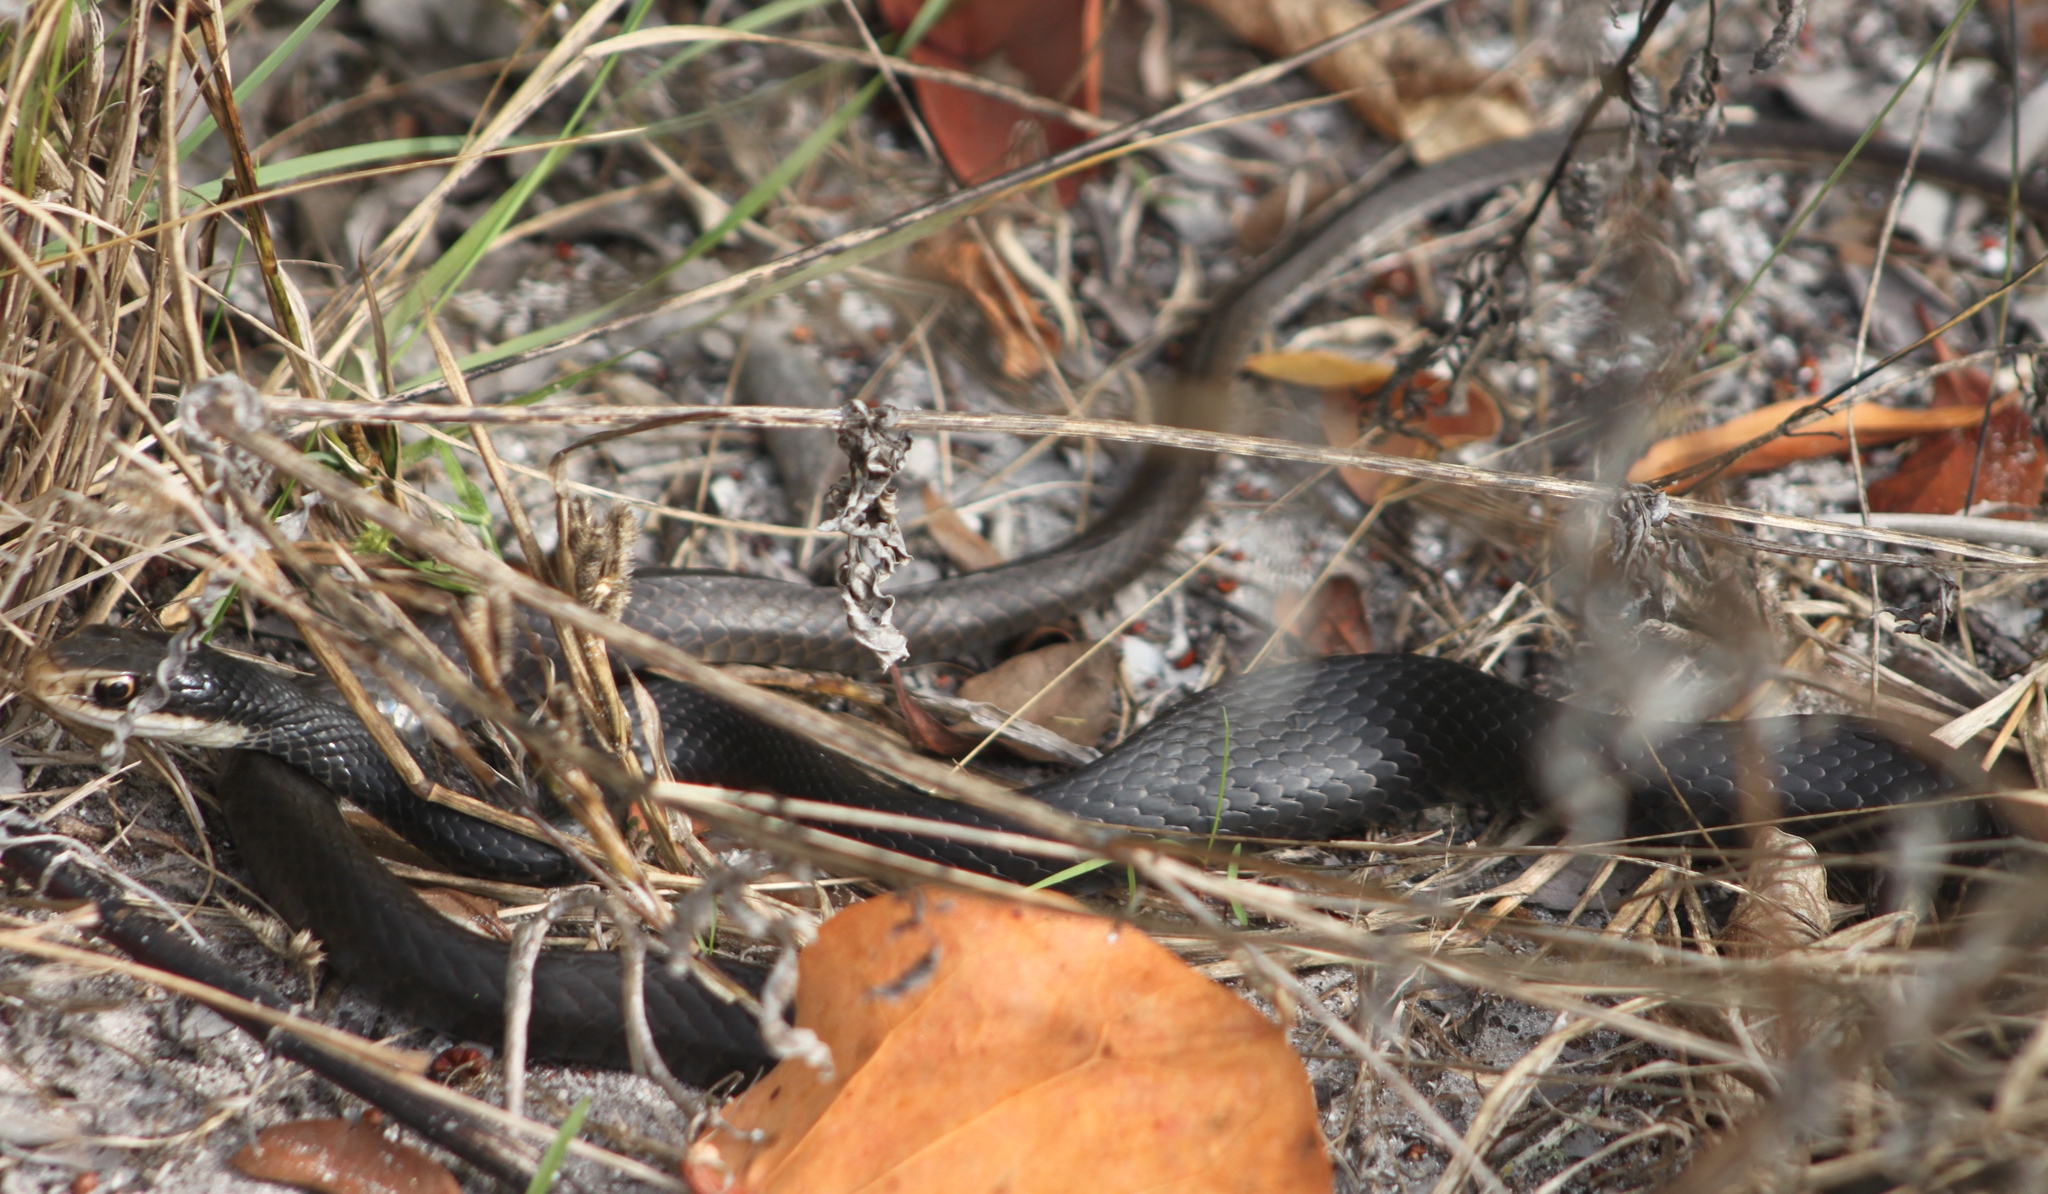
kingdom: Animalia
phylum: Chordata
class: Squamata
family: Colubridae
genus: Coluber
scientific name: Coluber constrictor
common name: Eastern racer
